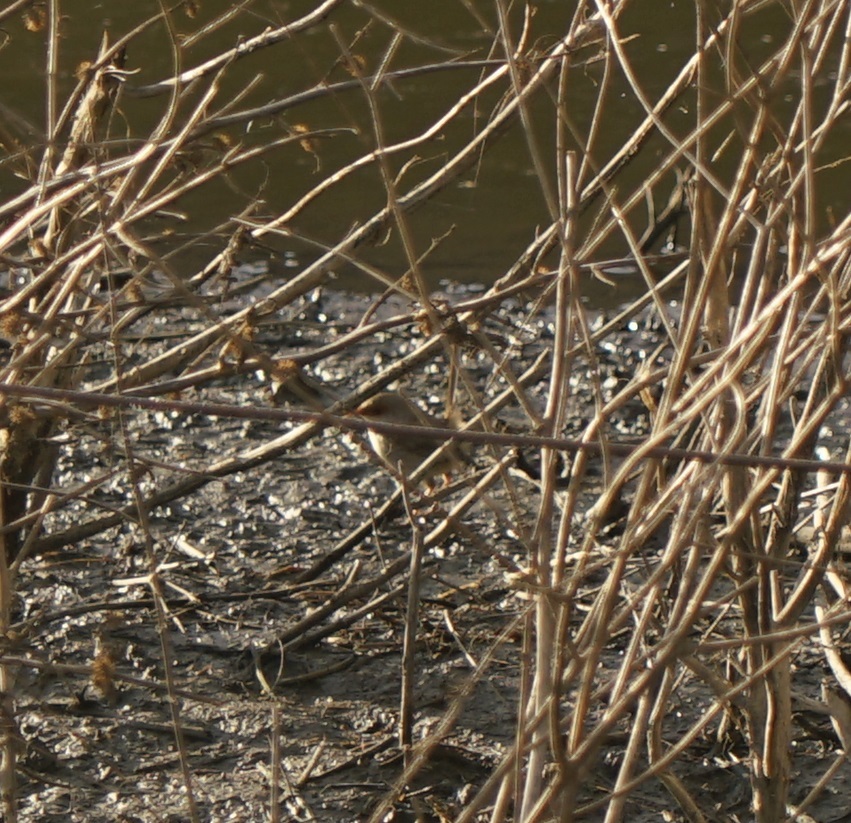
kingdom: Animalia
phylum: Chordata
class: Aves
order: Passeriformes
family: Maluridae
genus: Malurus
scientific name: Malurus cyaneus
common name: Superb fairywren
